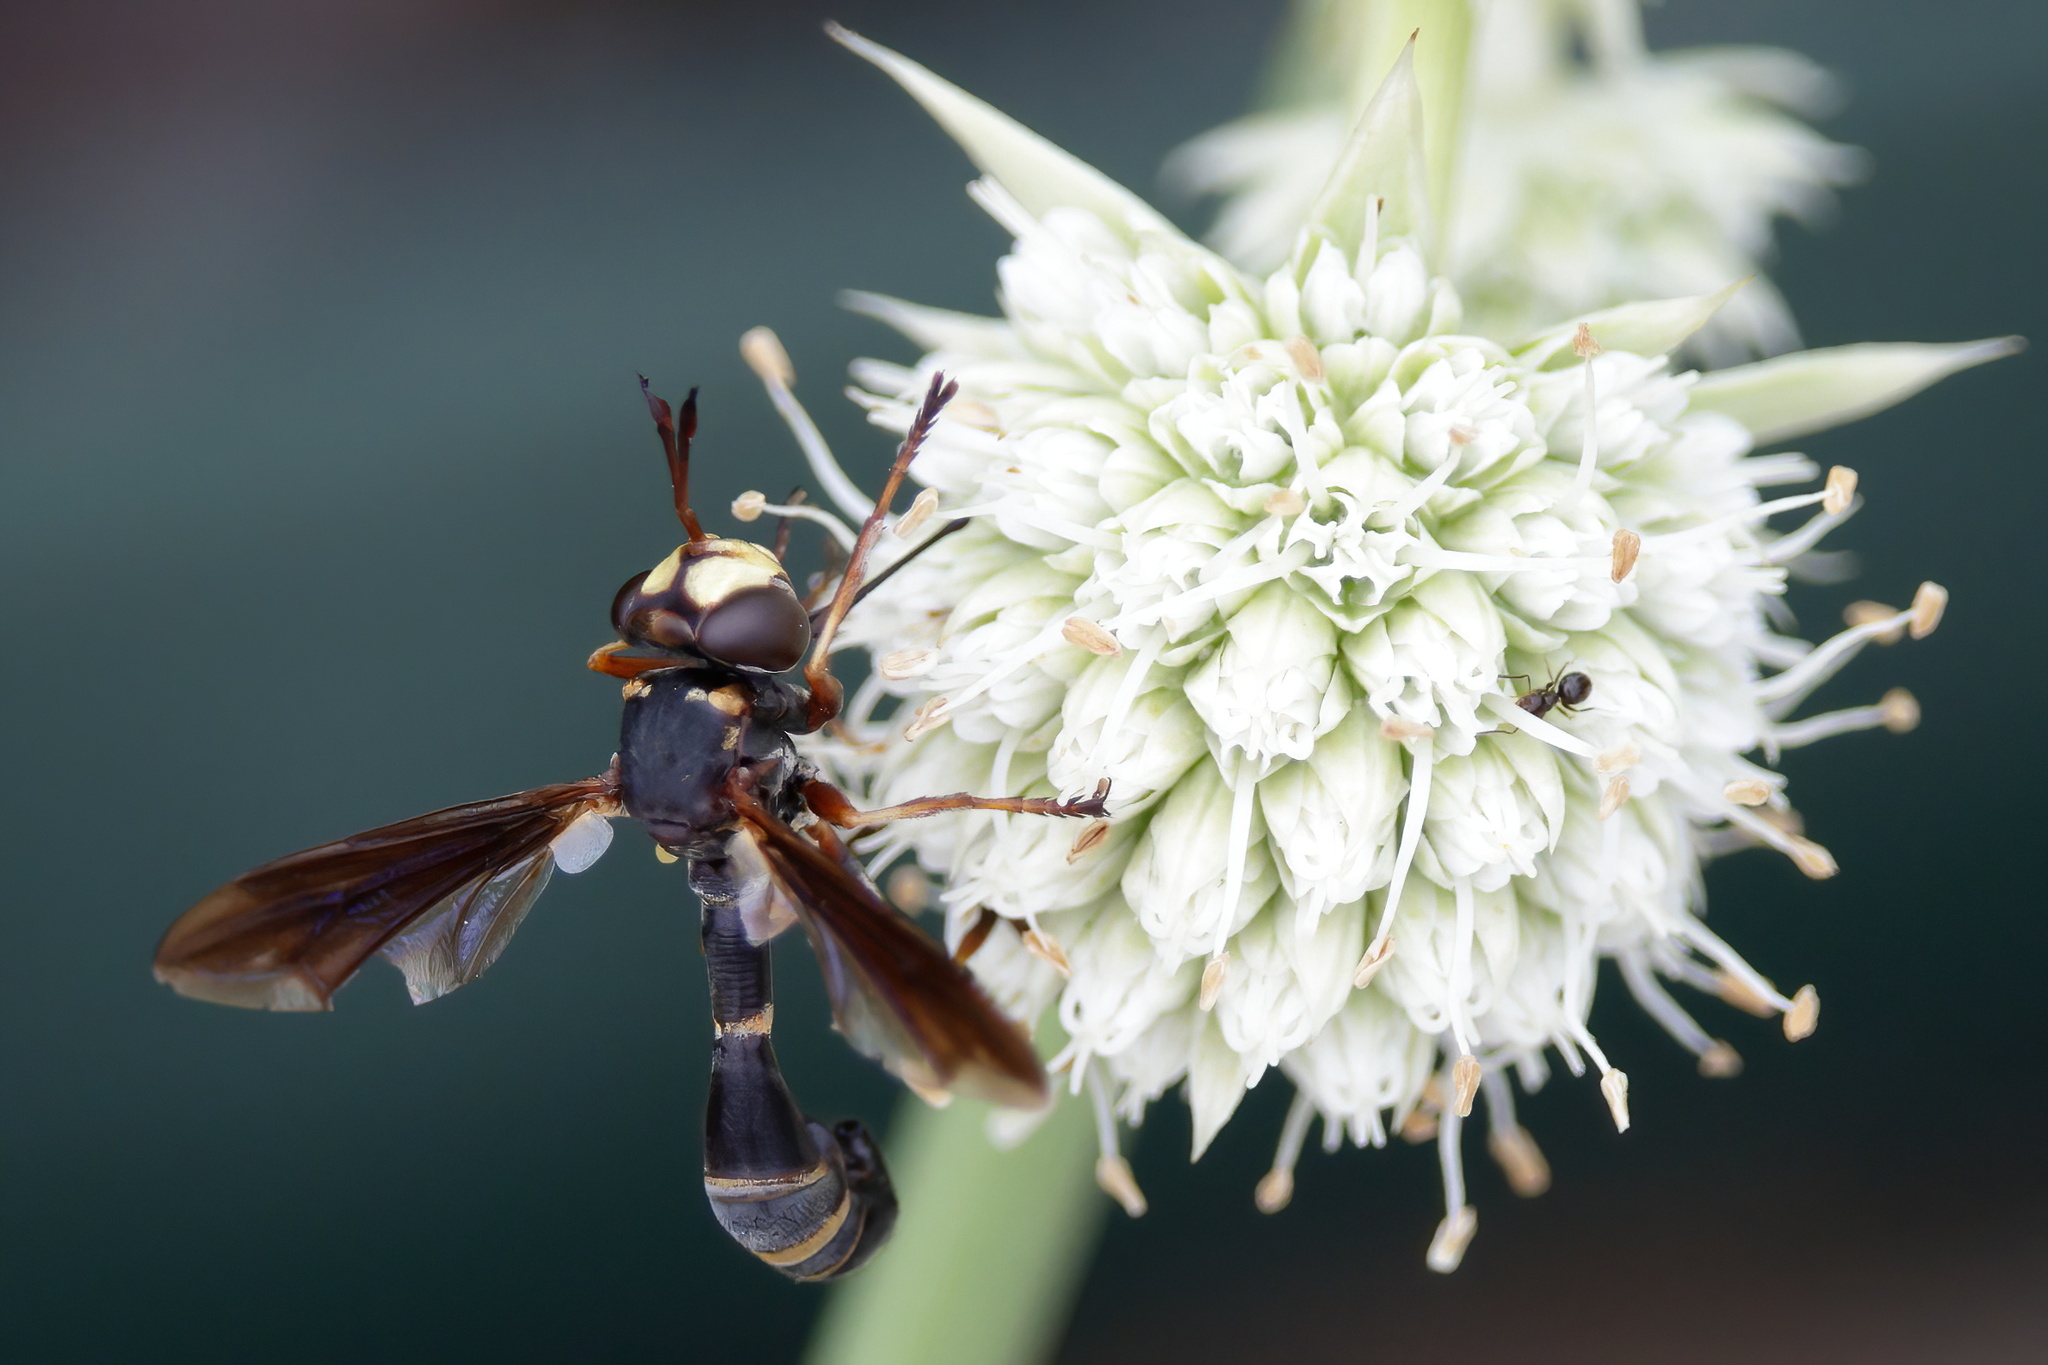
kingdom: Animalia
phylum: Arthropoda
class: Insecta
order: Diptera
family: Conopidae
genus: Physocephala
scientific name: Physocephala sagittaria
